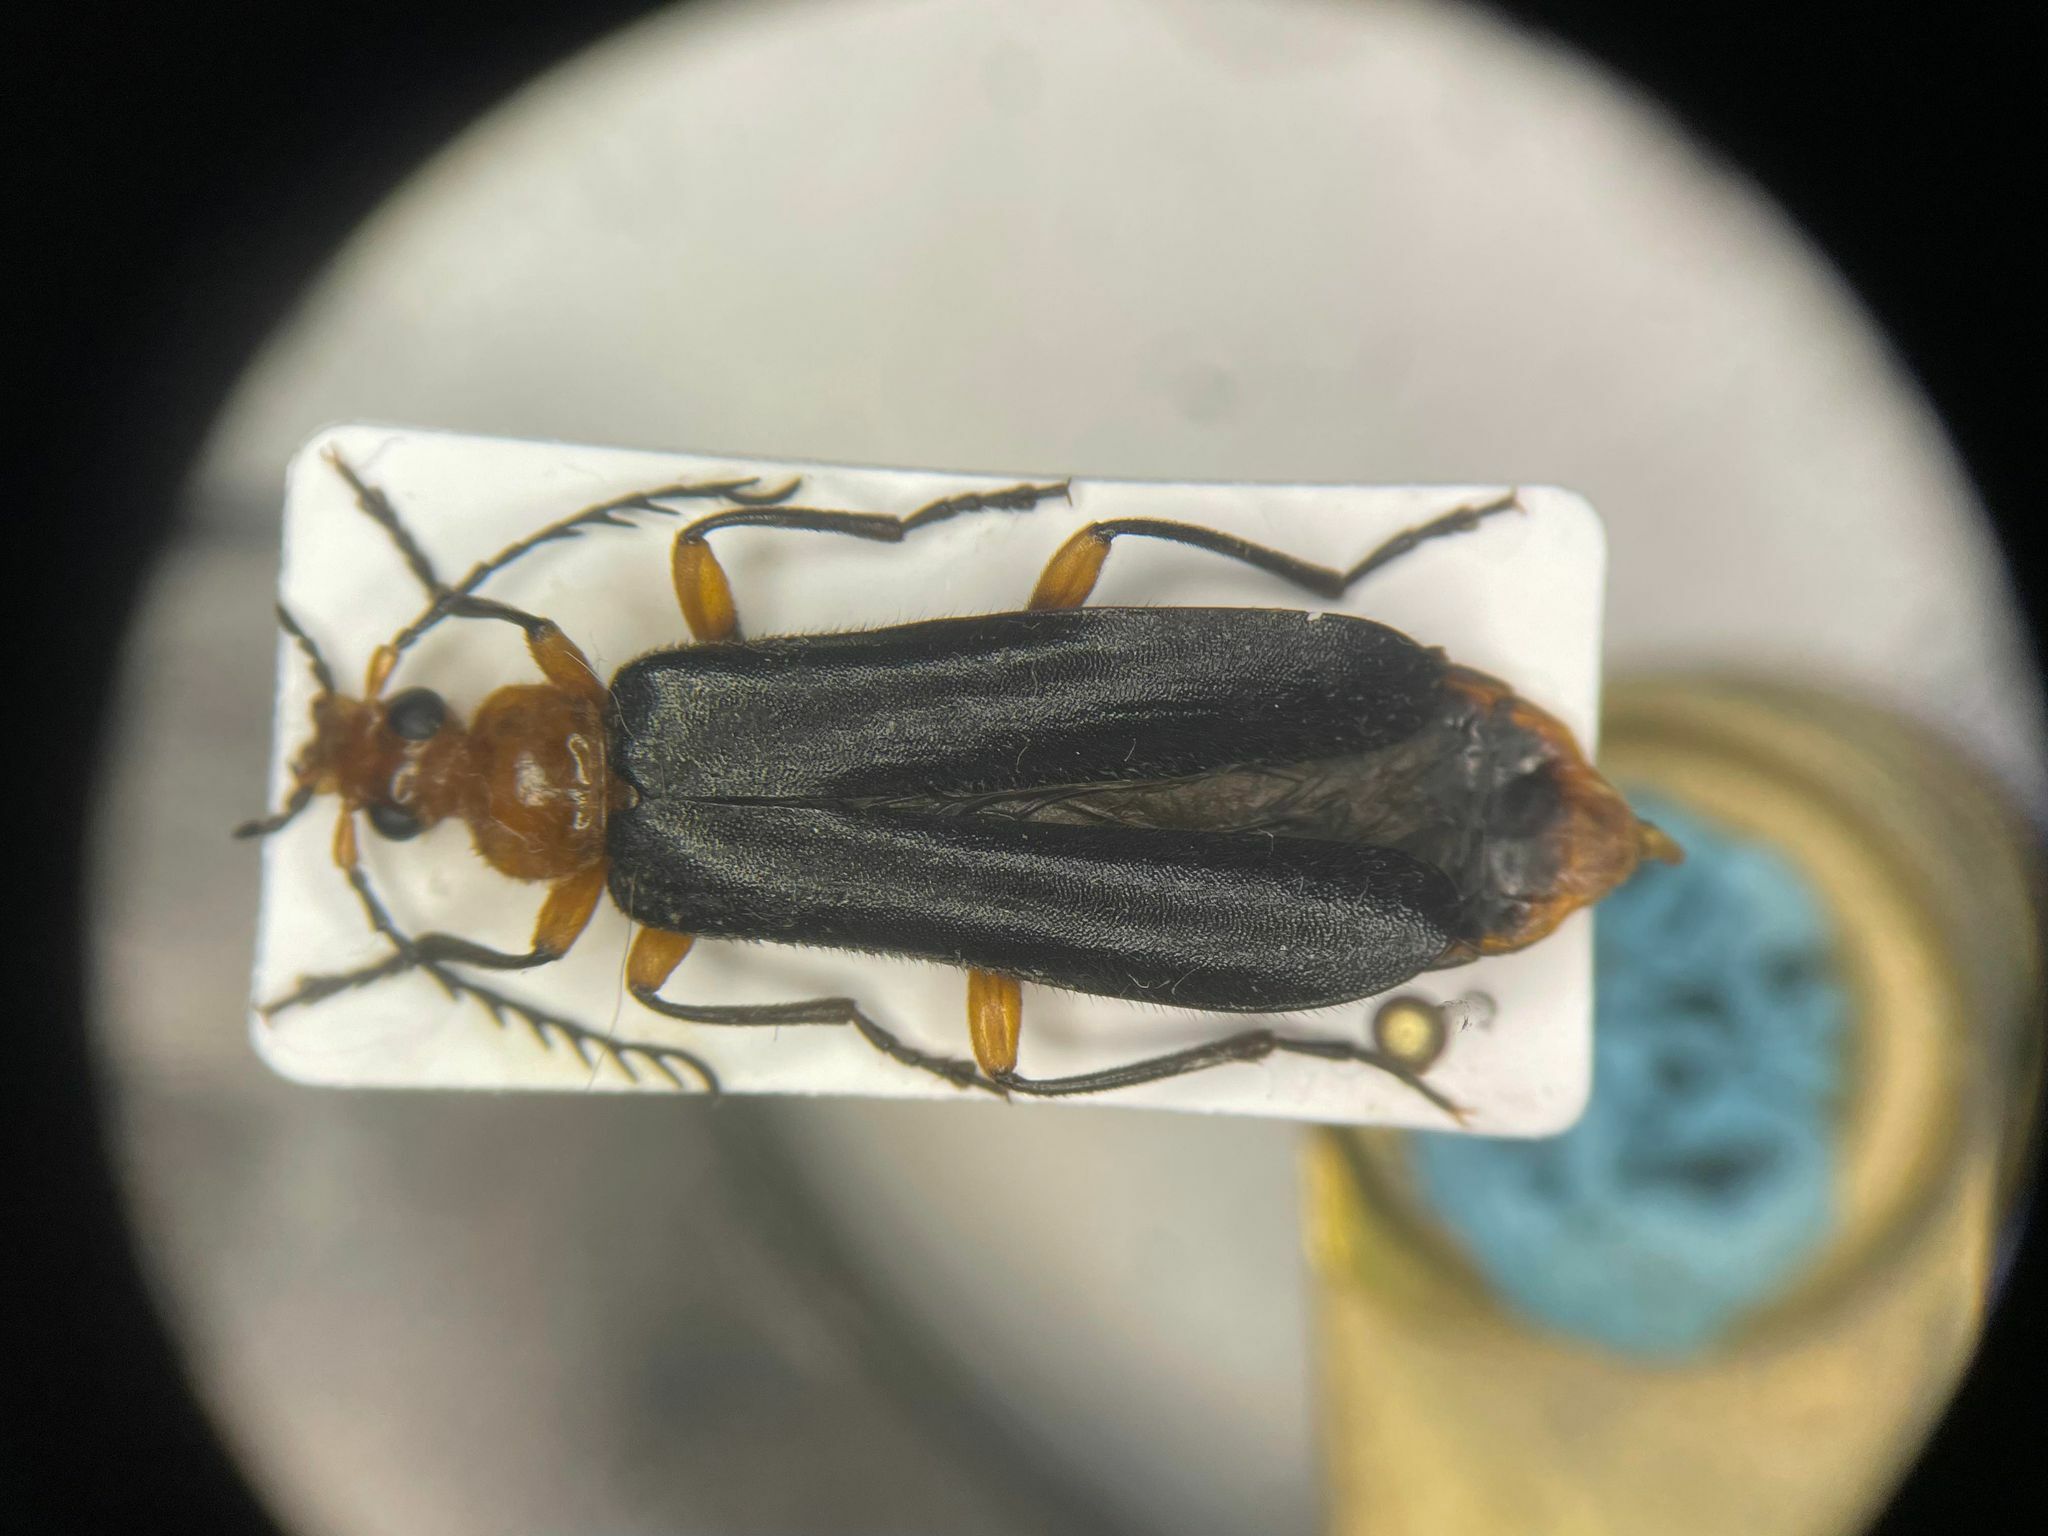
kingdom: Animalia
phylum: Arthropoda
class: Insecta
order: Coleoptera
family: Pyrochroidae
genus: Neopyrochroa
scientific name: Neopyrochroa femoralis
